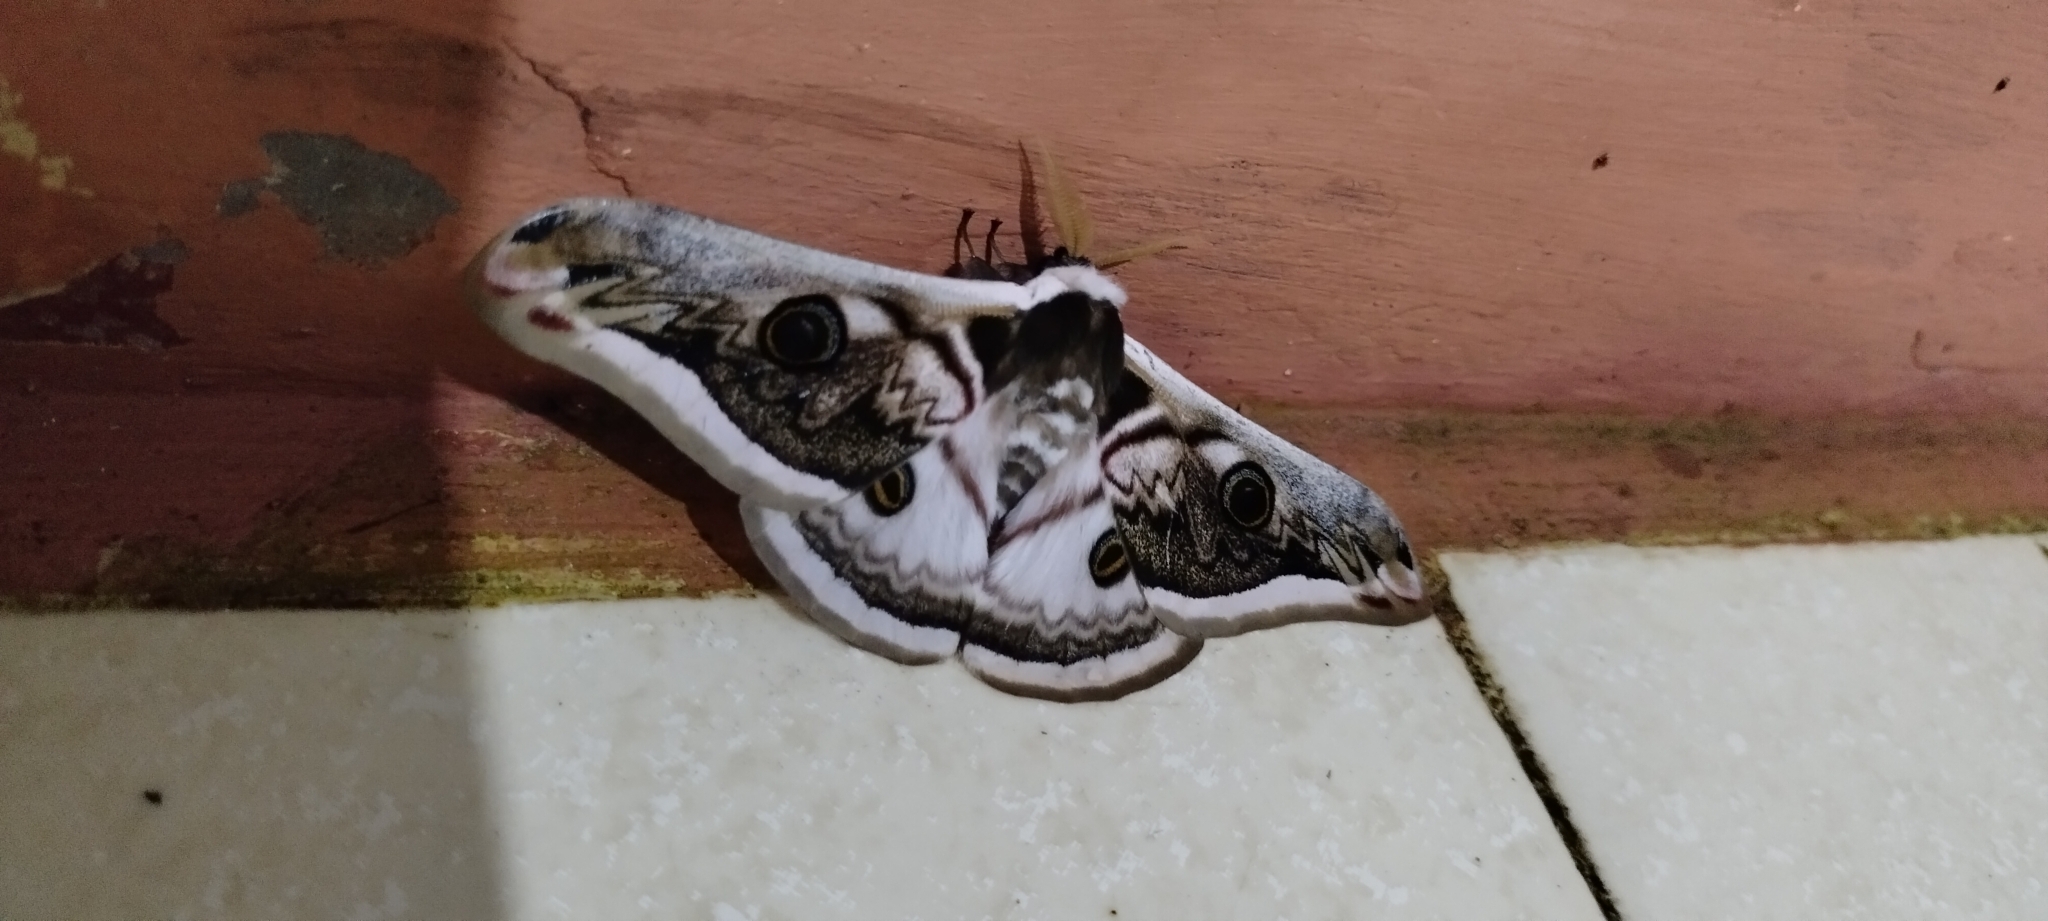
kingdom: Animalia
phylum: Arthropoda
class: Insecta
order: Lepidoptera
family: Saturniidae
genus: Saturnia
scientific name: Saturnia pyretorum
